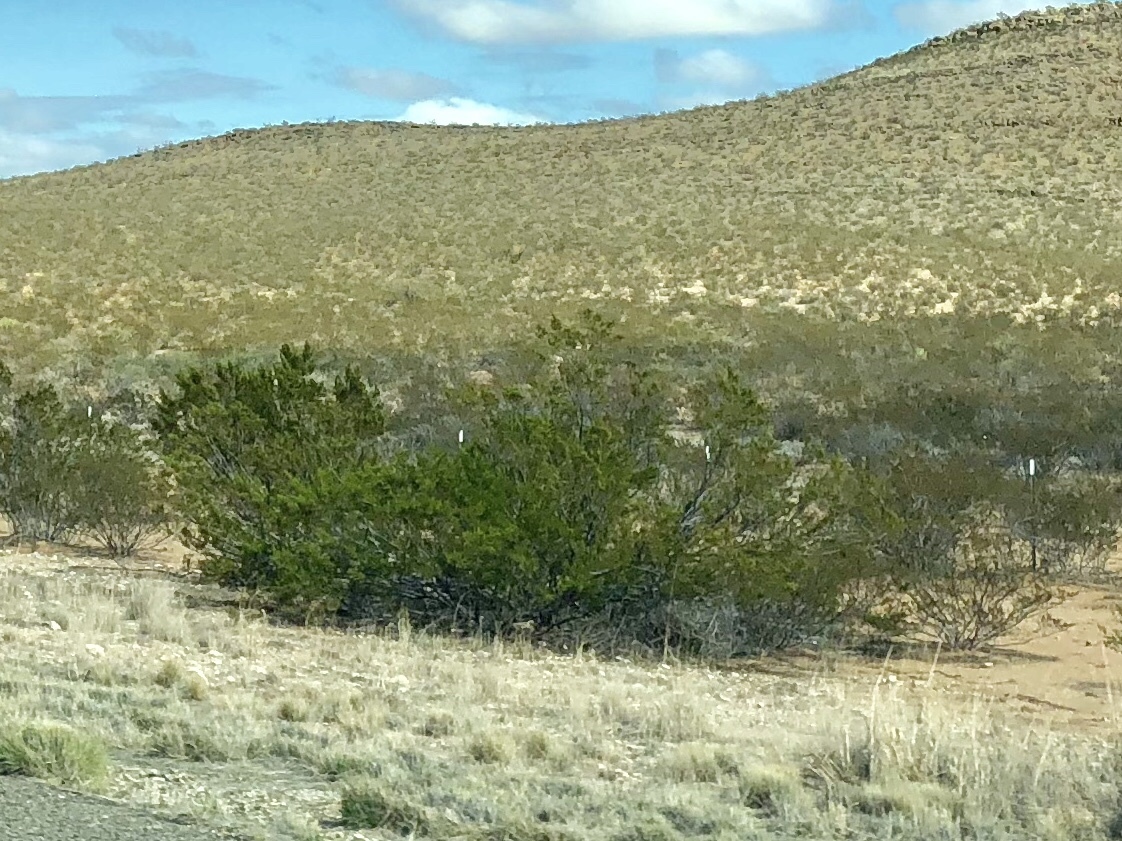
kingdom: Plantae
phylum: Tracheophyta
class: Magnoliopsida
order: Zygophyllales
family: Zygophyllaceae
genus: Larrea
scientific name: Larrea tridentata
